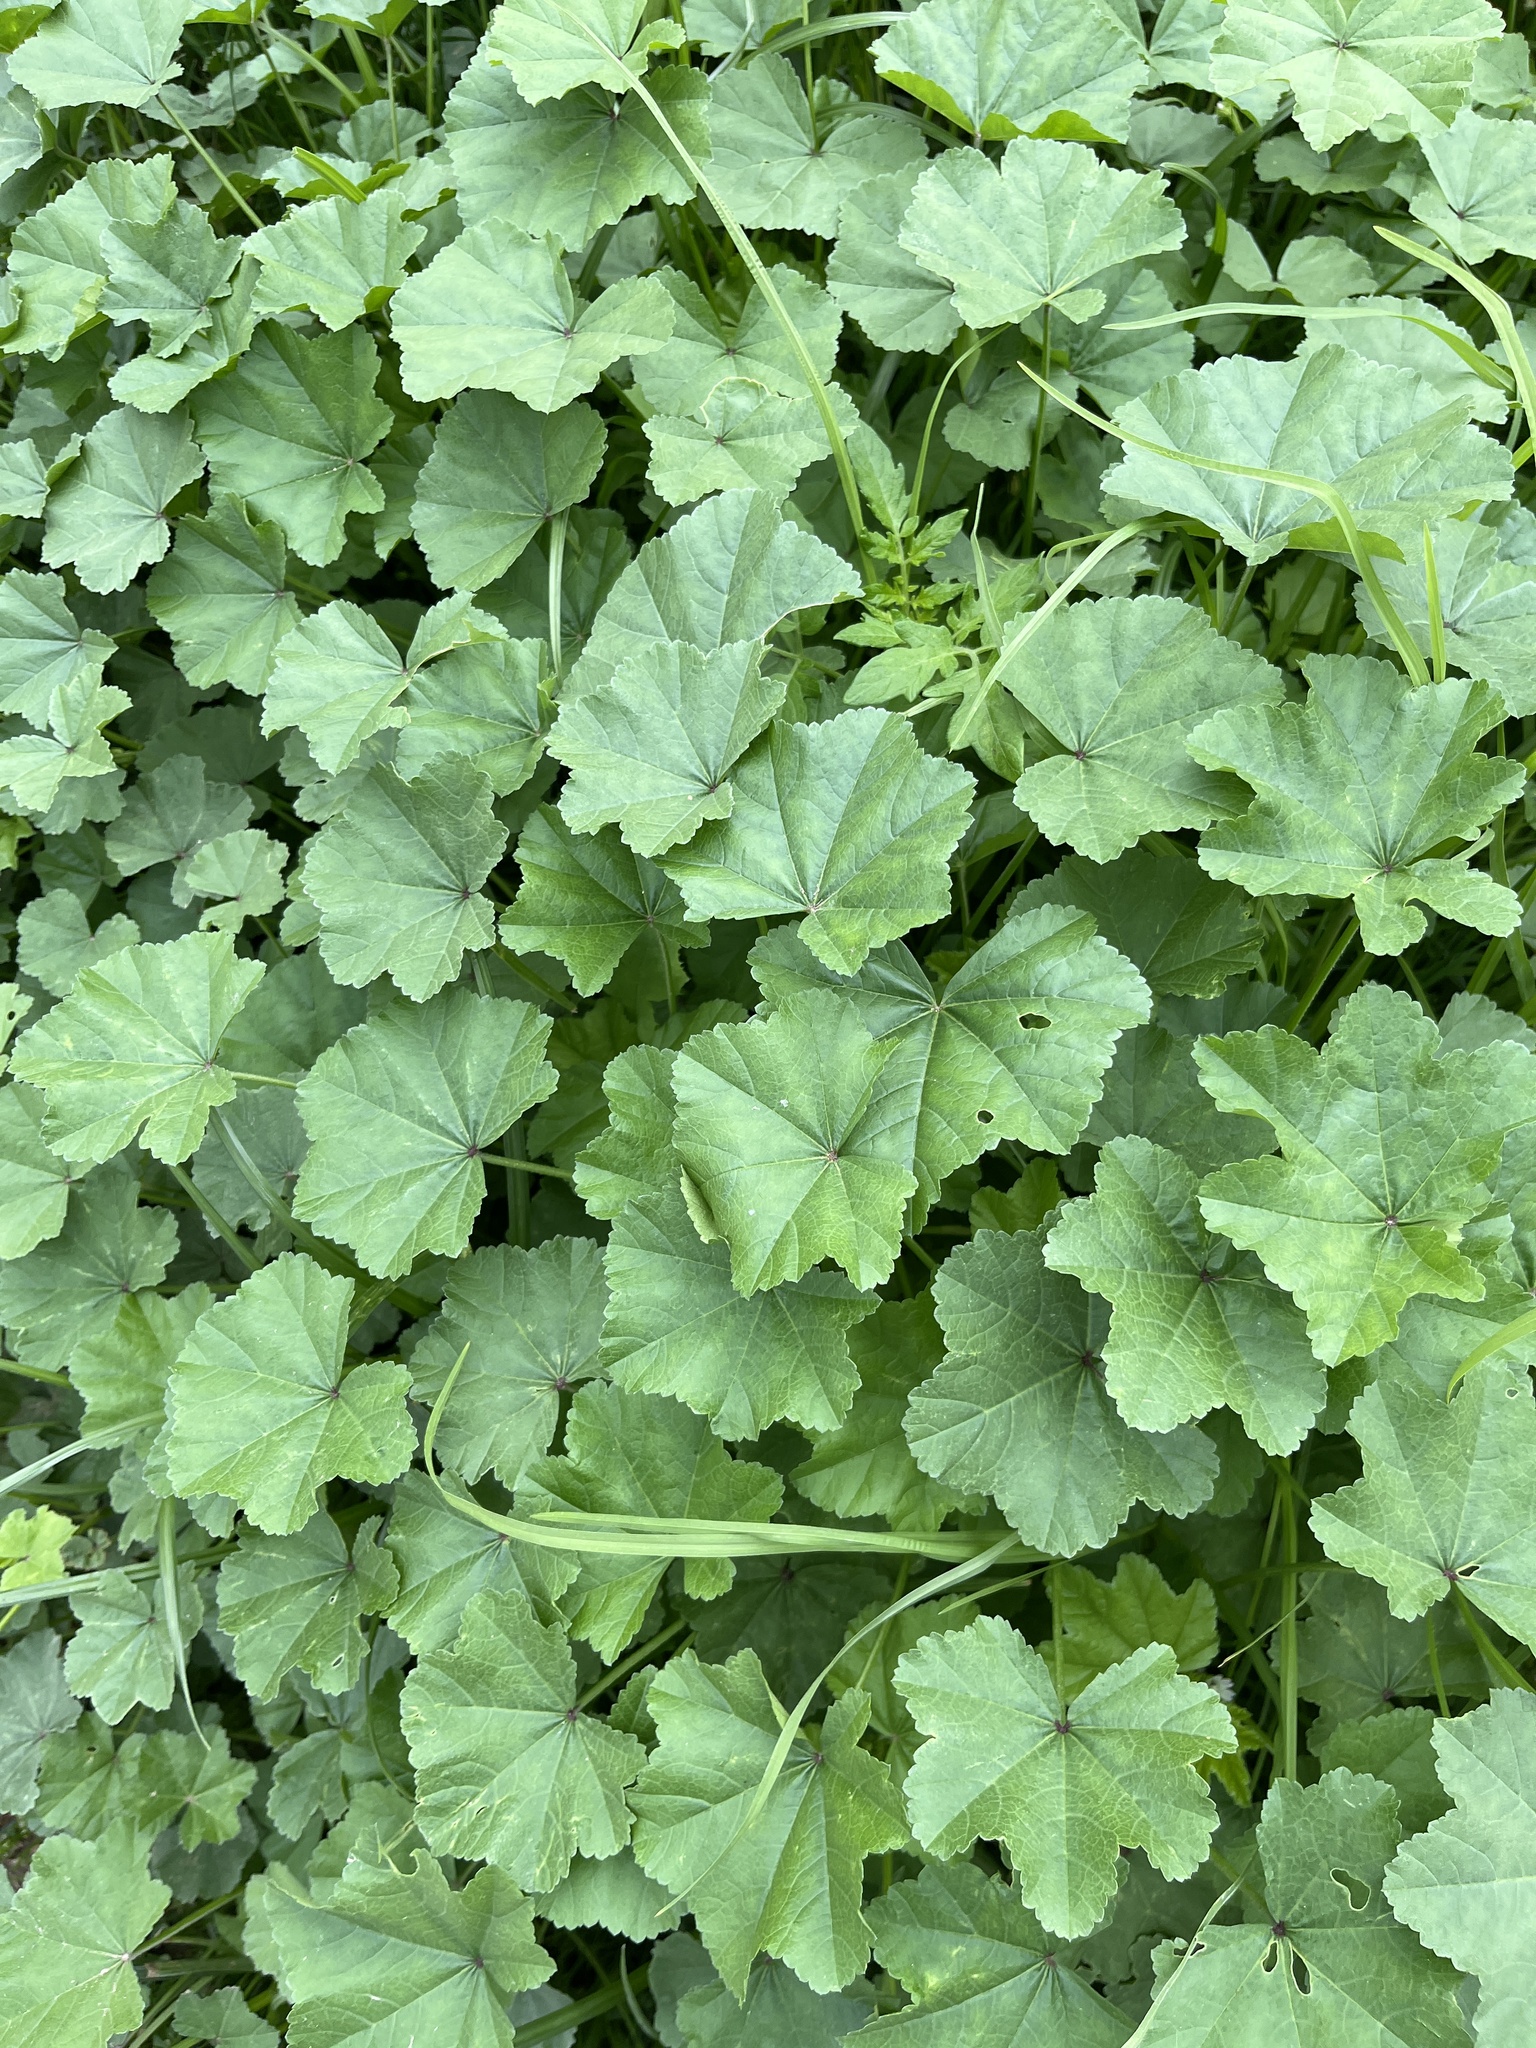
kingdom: Plantae
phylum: Tracheophyta
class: Magnoliopsida
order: Malvales
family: Malvaceae
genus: Malva
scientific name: Malva
